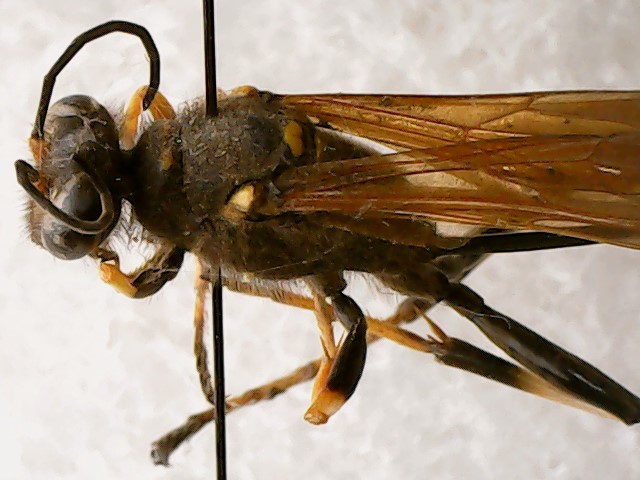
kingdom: Animalia
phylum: Arthropoda
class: Insecta
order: Hymenoptera
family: Sphecidae
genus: Sceliphron
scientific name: Sceliphron caementarium
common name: Mud dauber
